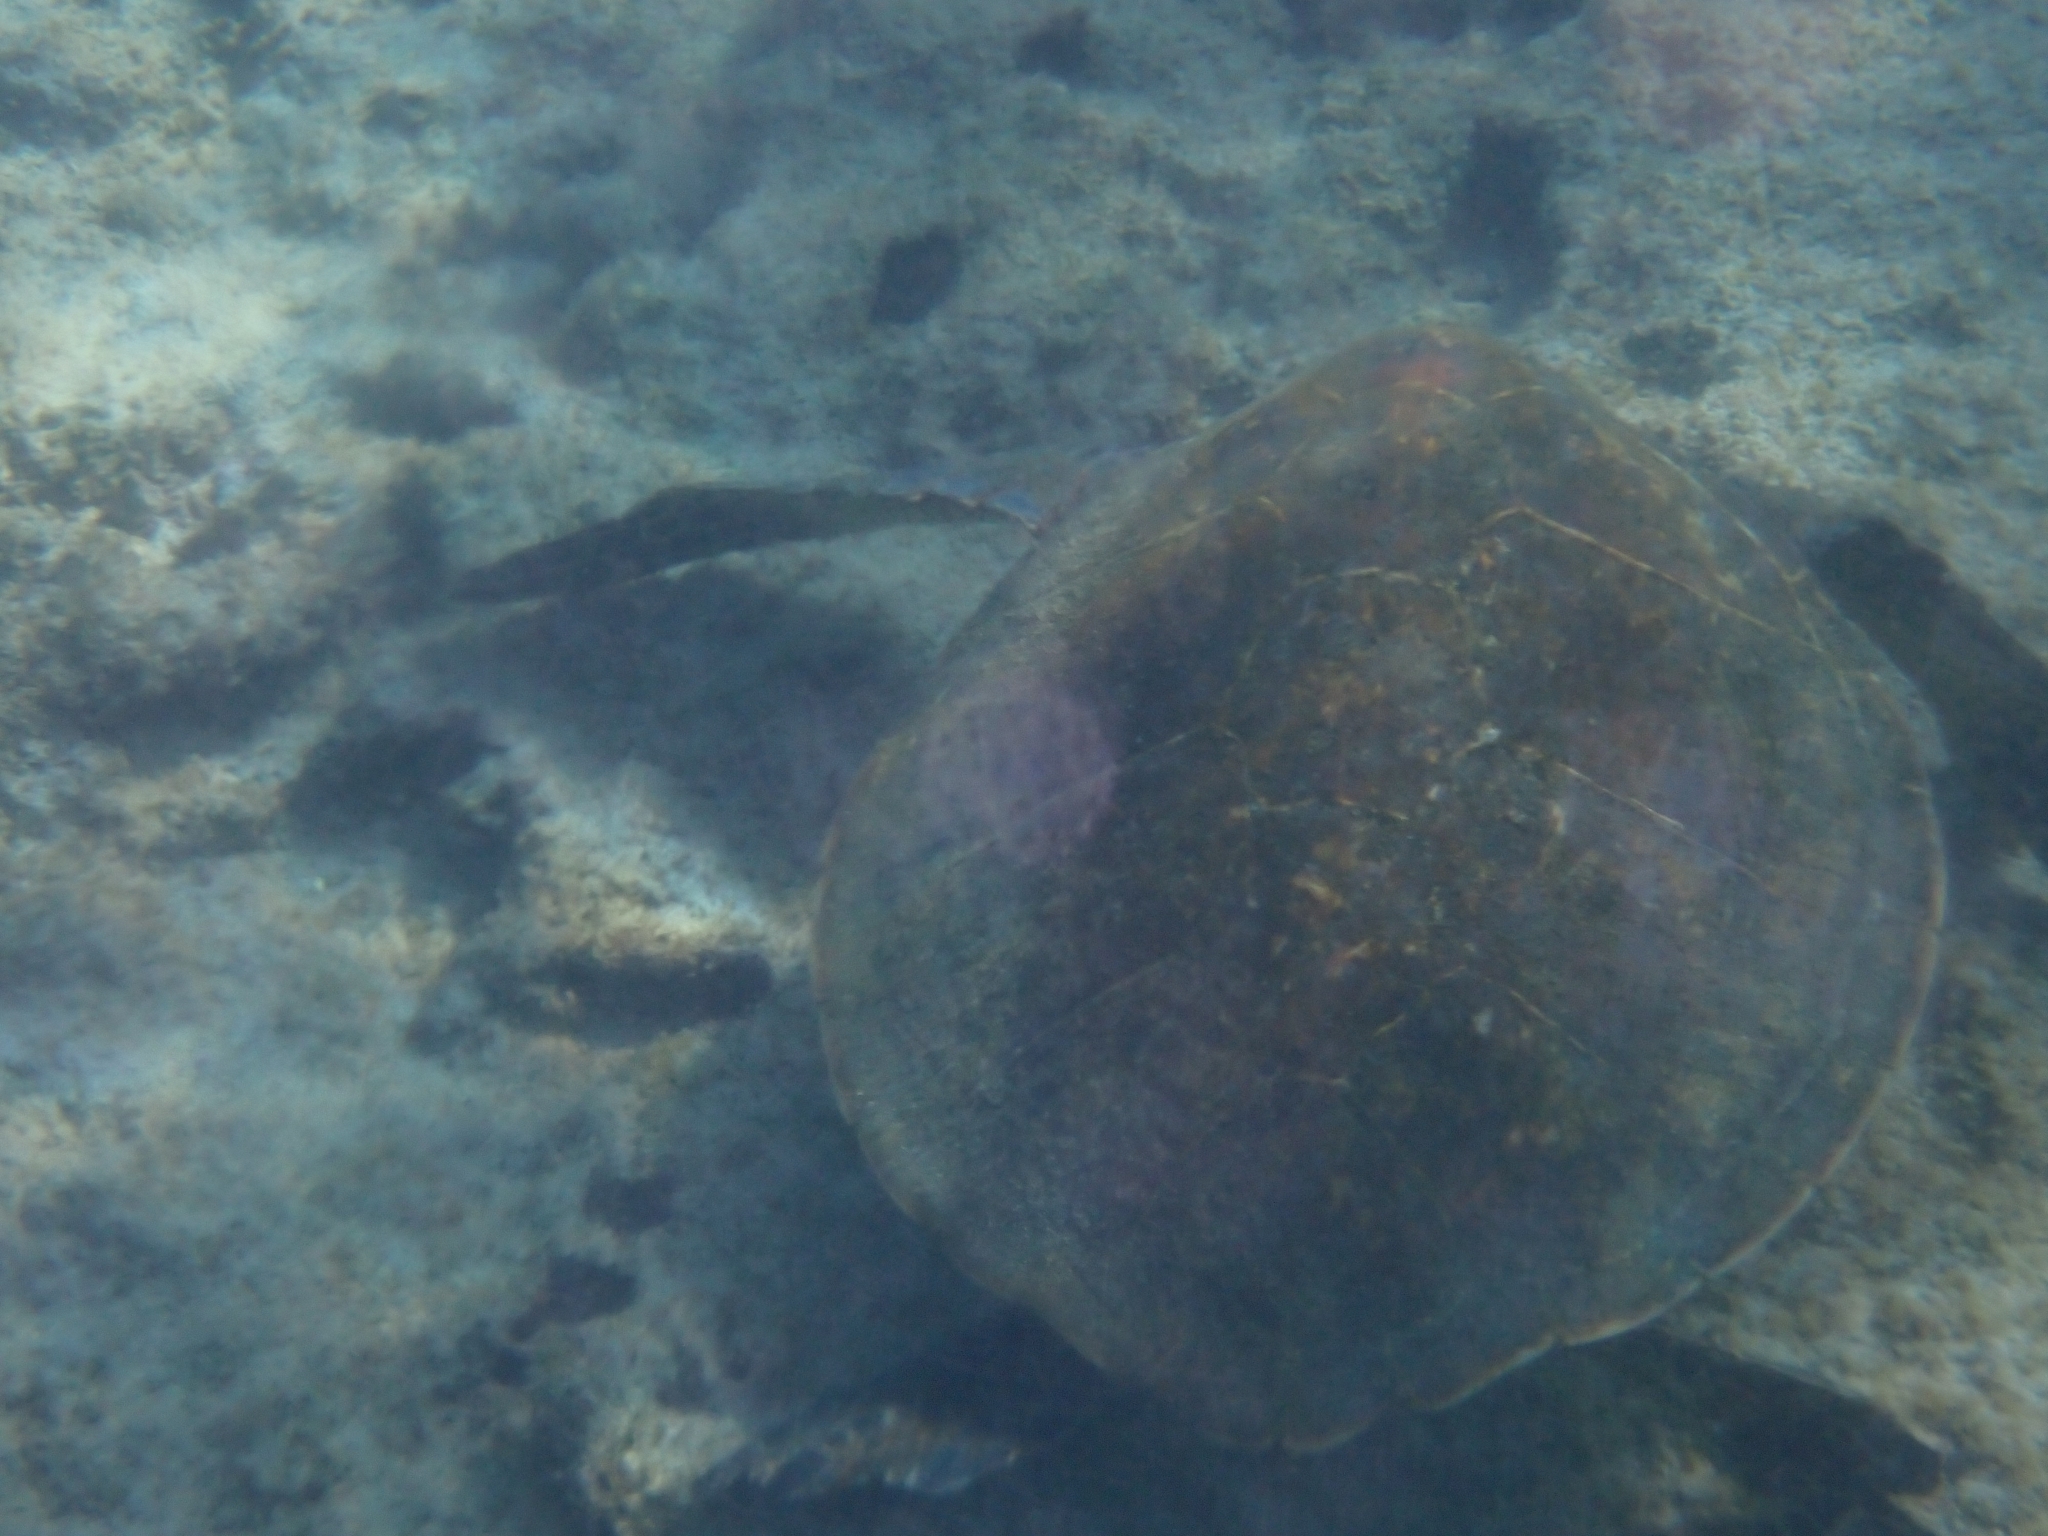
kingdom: Animalia
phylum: Chordata
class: Testudines
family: Cheloniidae
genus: Chelonia
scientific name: Chelonia mydas
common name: Green turtle
